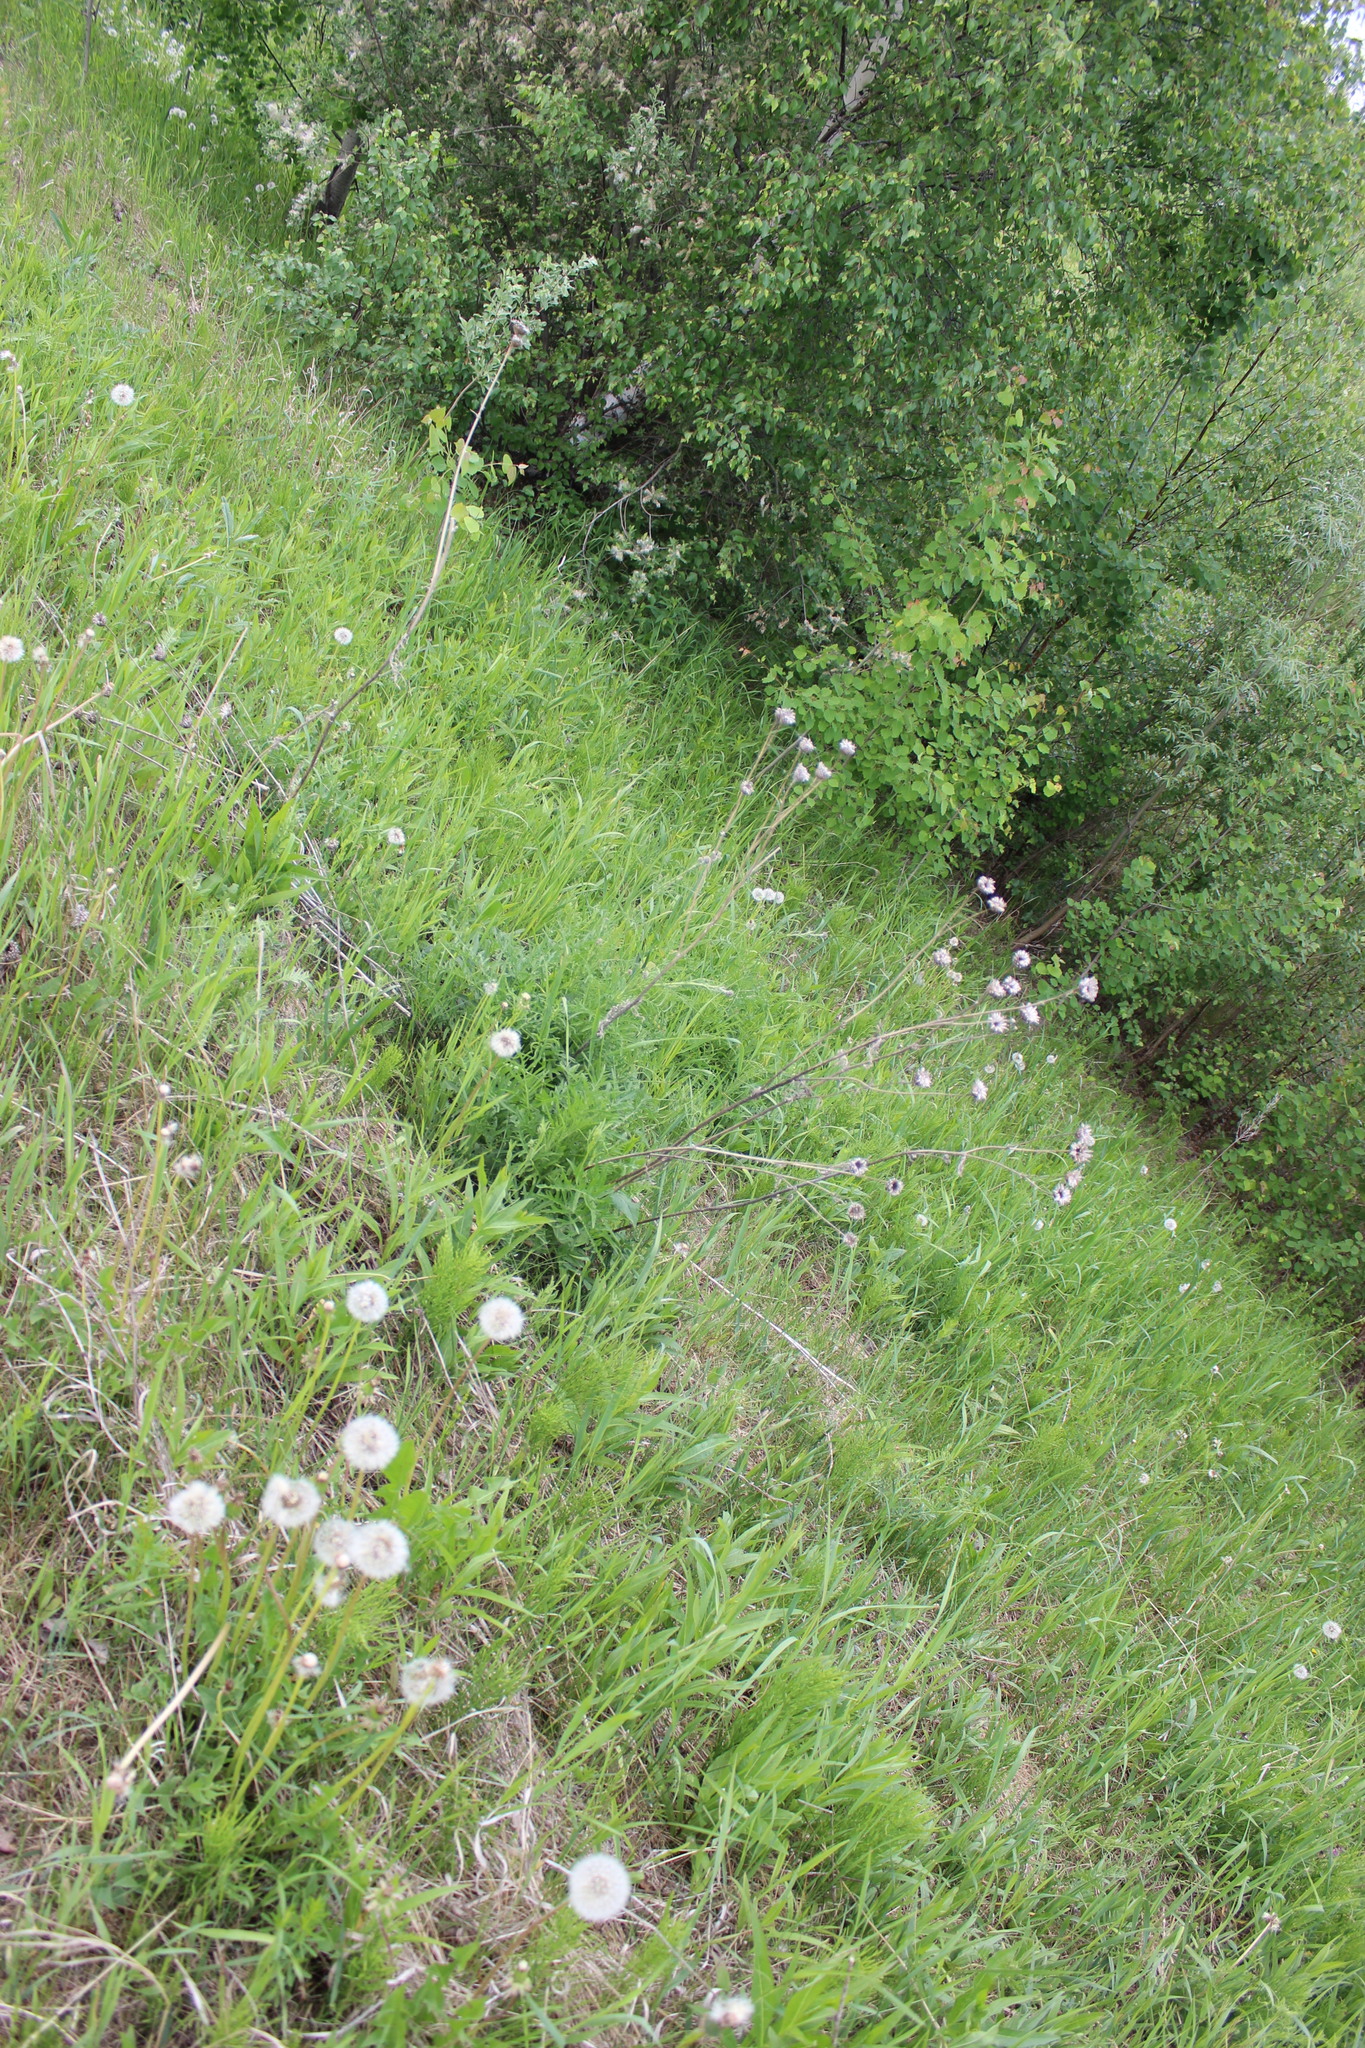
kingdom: Plantae
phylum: Tracheophyta
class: Magnoliopsida
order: Asterales
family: Asteraceae
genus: Centaurea
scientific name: Centaurea scabiosa
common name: Greater knapweed
